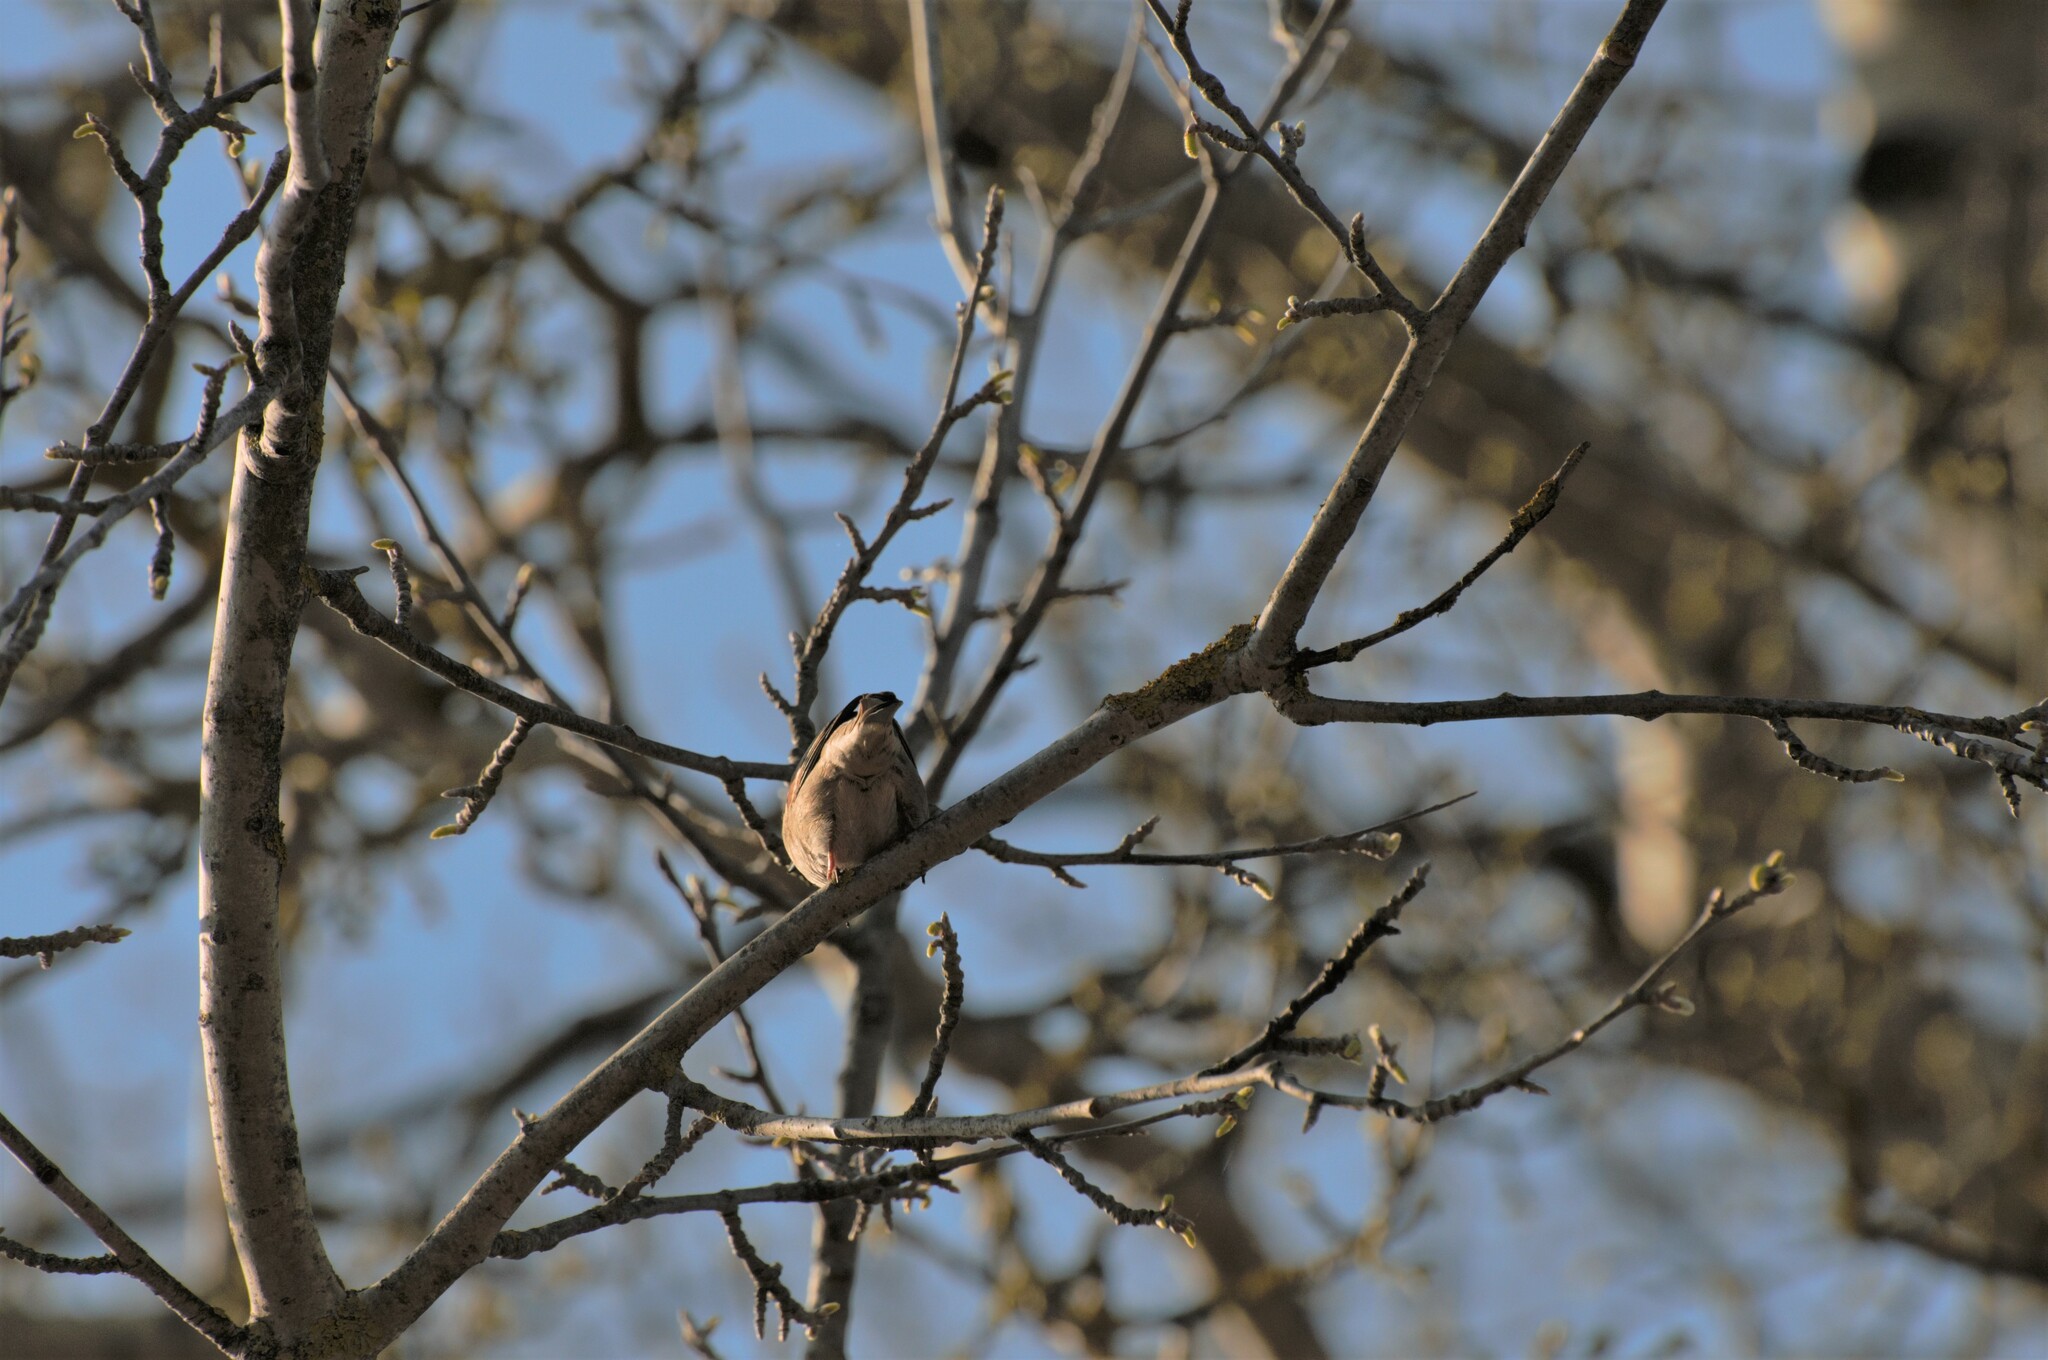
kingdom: Animalia
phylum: Chordata
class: Aves
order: Passeriformes
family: Passeridae
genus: Passer
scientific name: Passer montanus
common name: Eurasian tree sparrow
